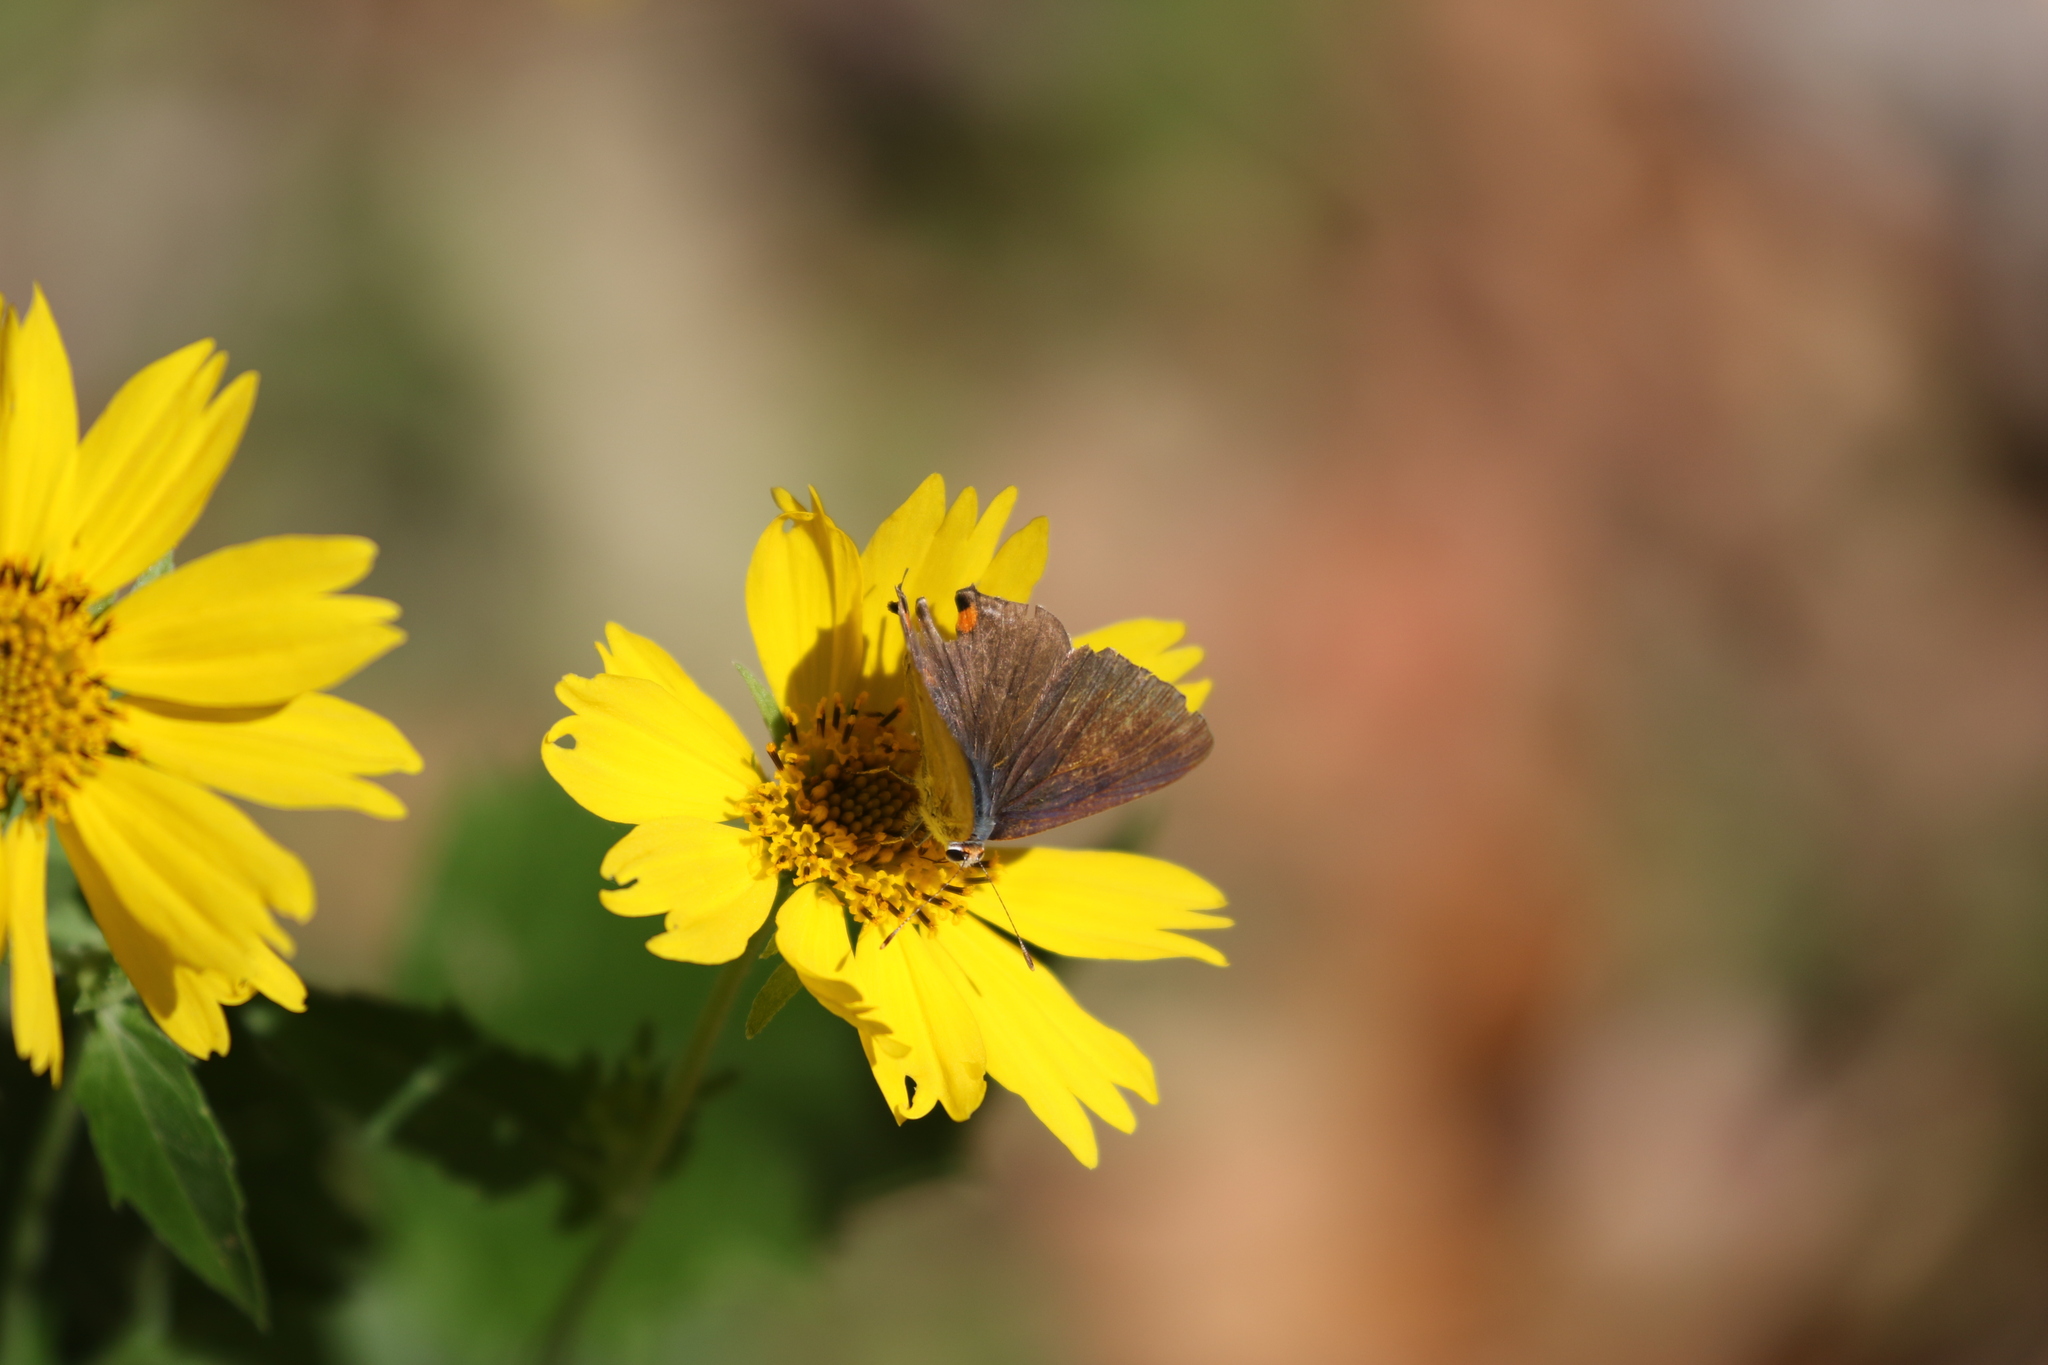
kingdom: Animalia
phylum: Arthropoda
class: Insecta
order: Lepidoptera
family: Lycaenidae
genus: Strymon
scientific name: Strymon melinus
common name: Gray hairstreak
